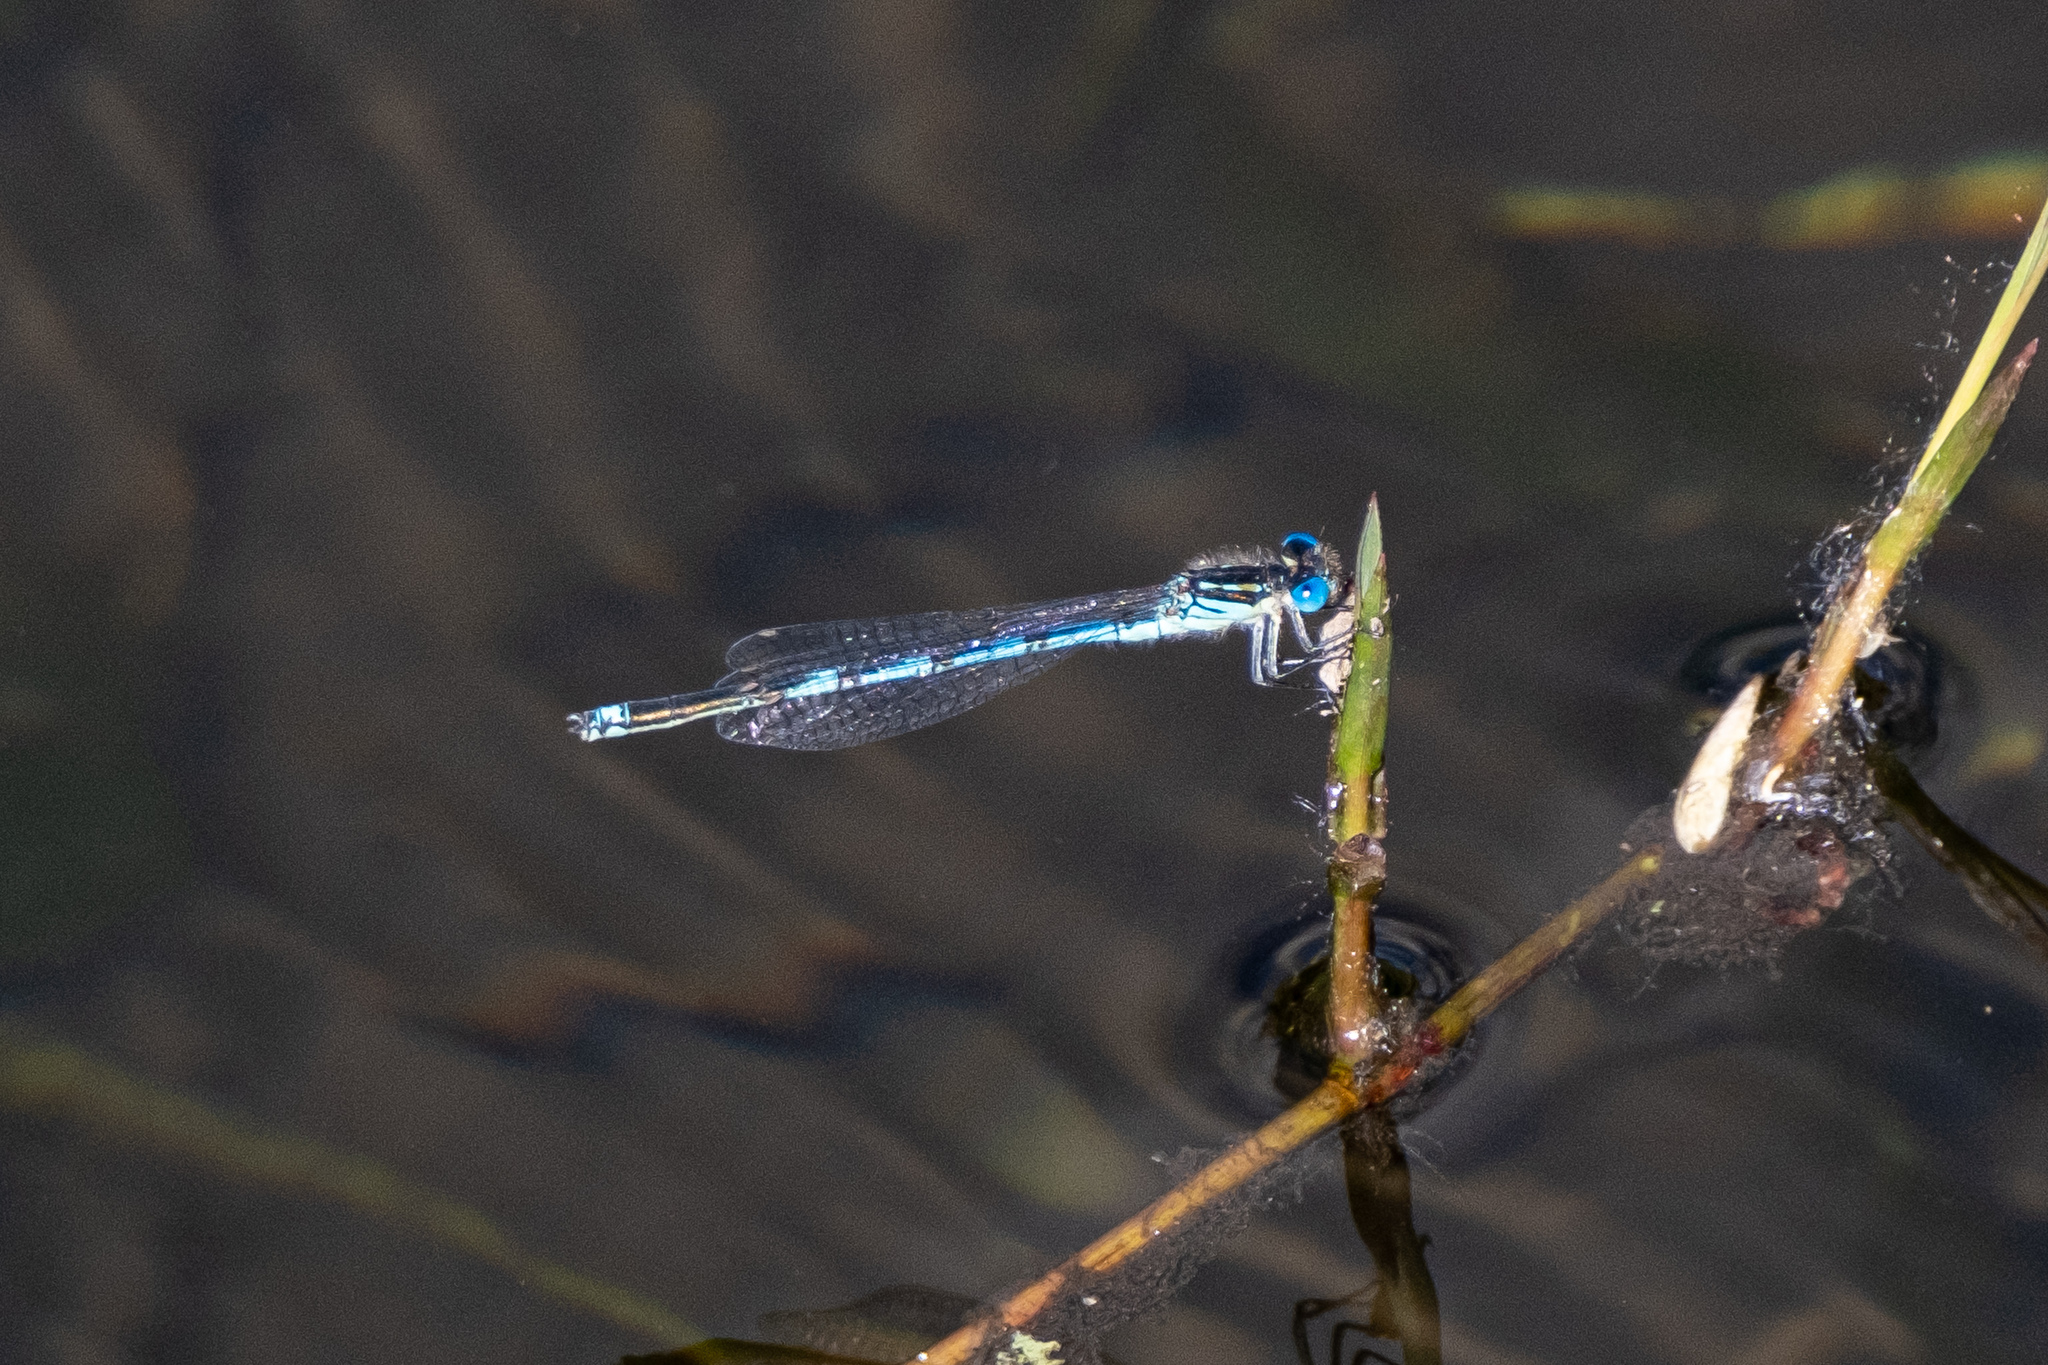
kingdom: Animalia
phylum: Arthropoda
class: Insecta
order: Odonata
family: Coenagrionidae
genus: Erythromma
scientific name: Erythromma lindenii
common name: Blue-eye
